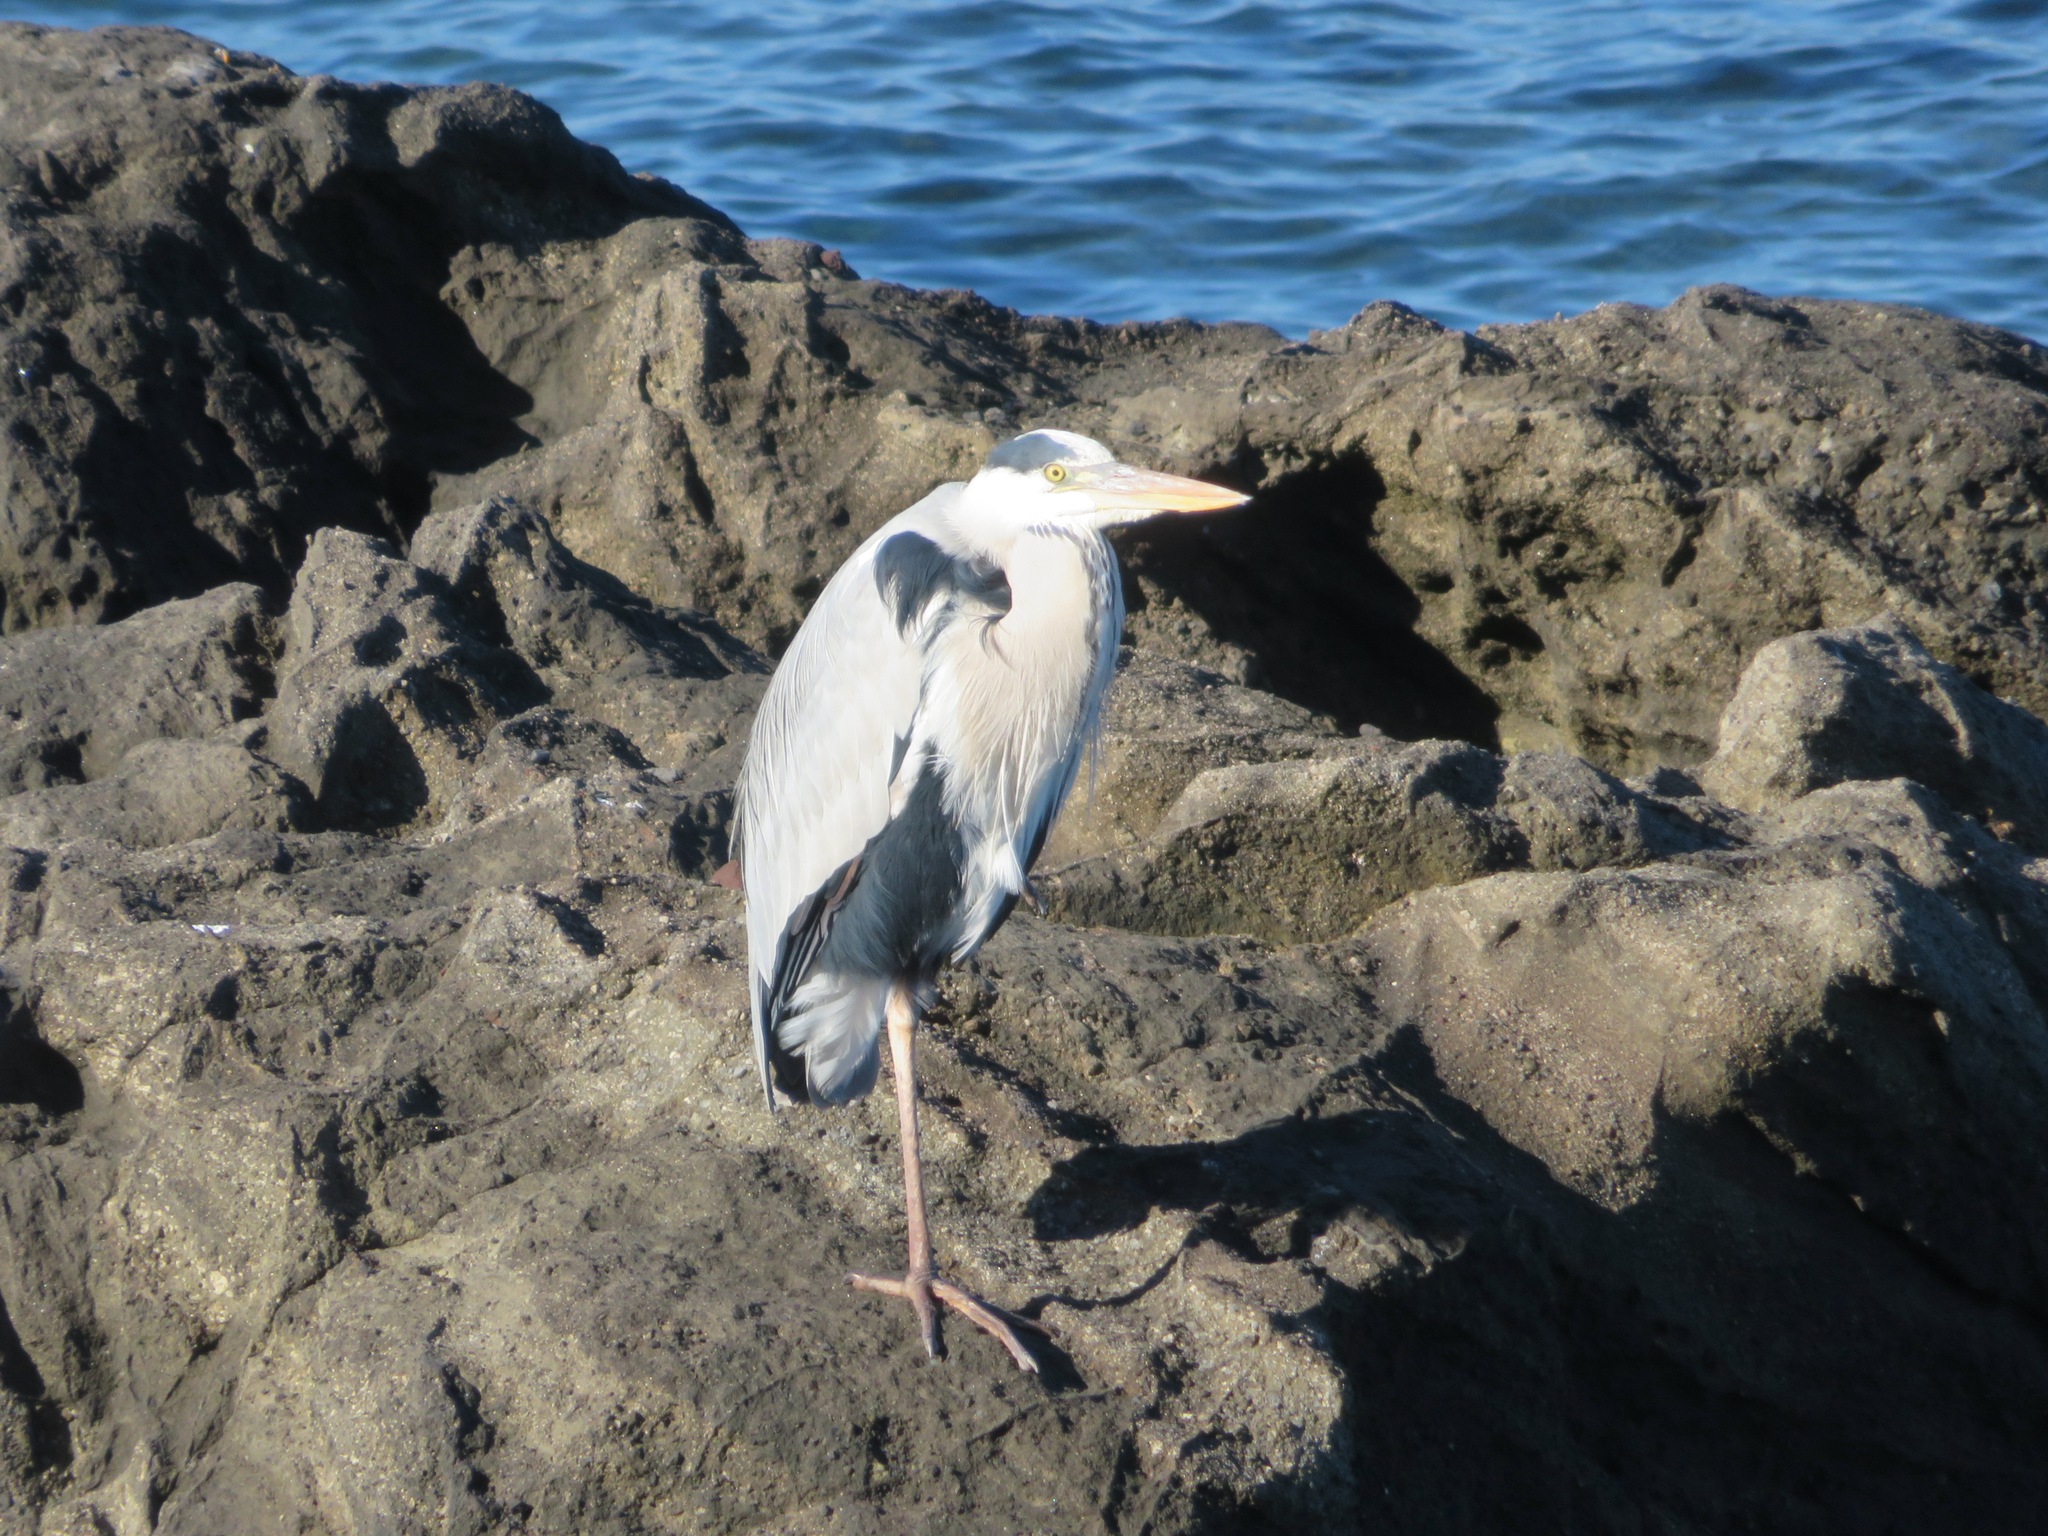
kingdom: Animalia
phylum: Chordata
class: Aves
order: Pelecaniformes
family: Ardeidae
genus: Ardea
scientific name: Ardea cinerea
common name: Grey heron
